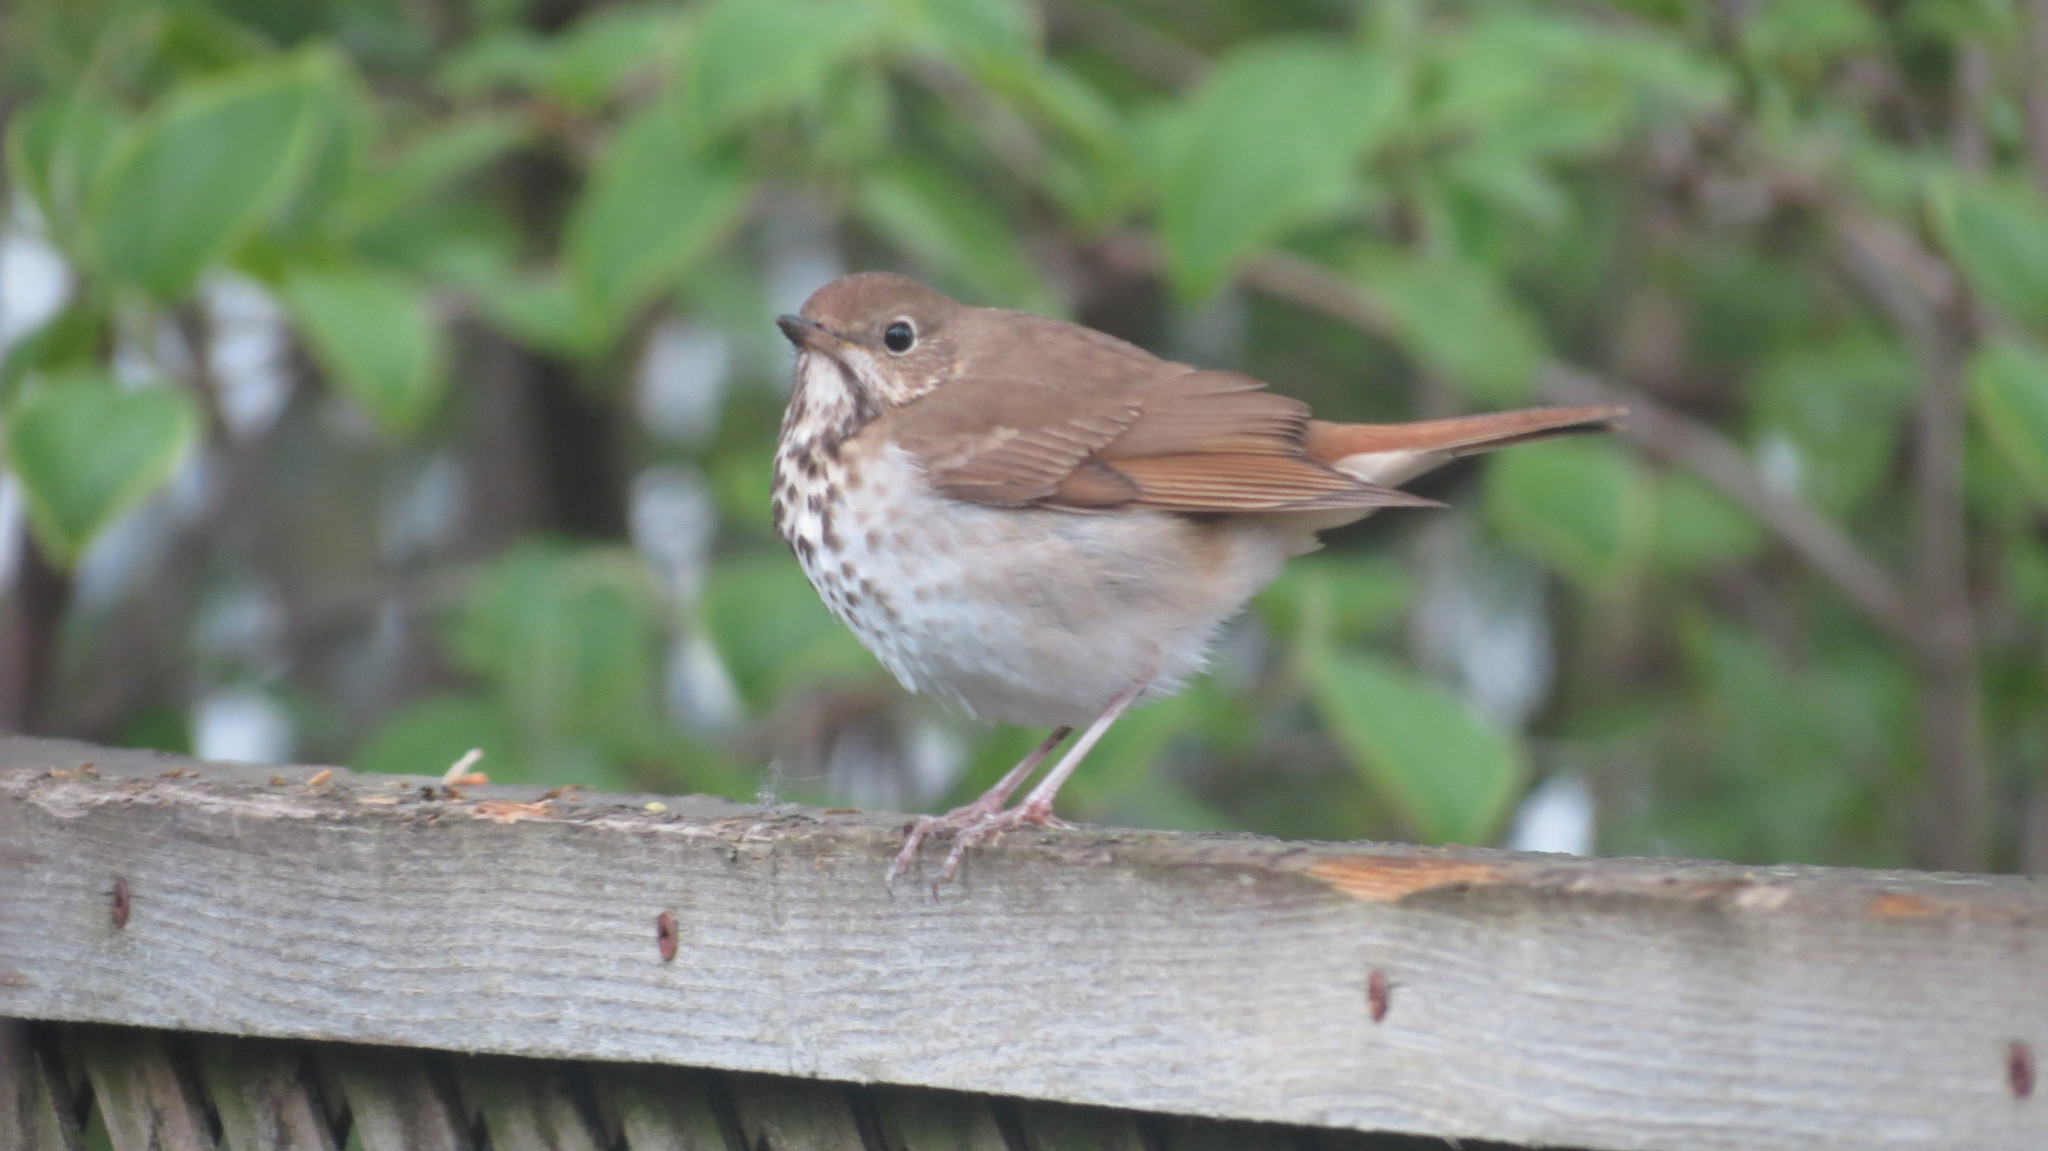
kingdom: Animalia
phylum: Chordata
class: Aves
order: Passeriformes
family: Turdidae
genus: Catharus
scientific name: Catharus guttatus
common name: Hermit thrush
